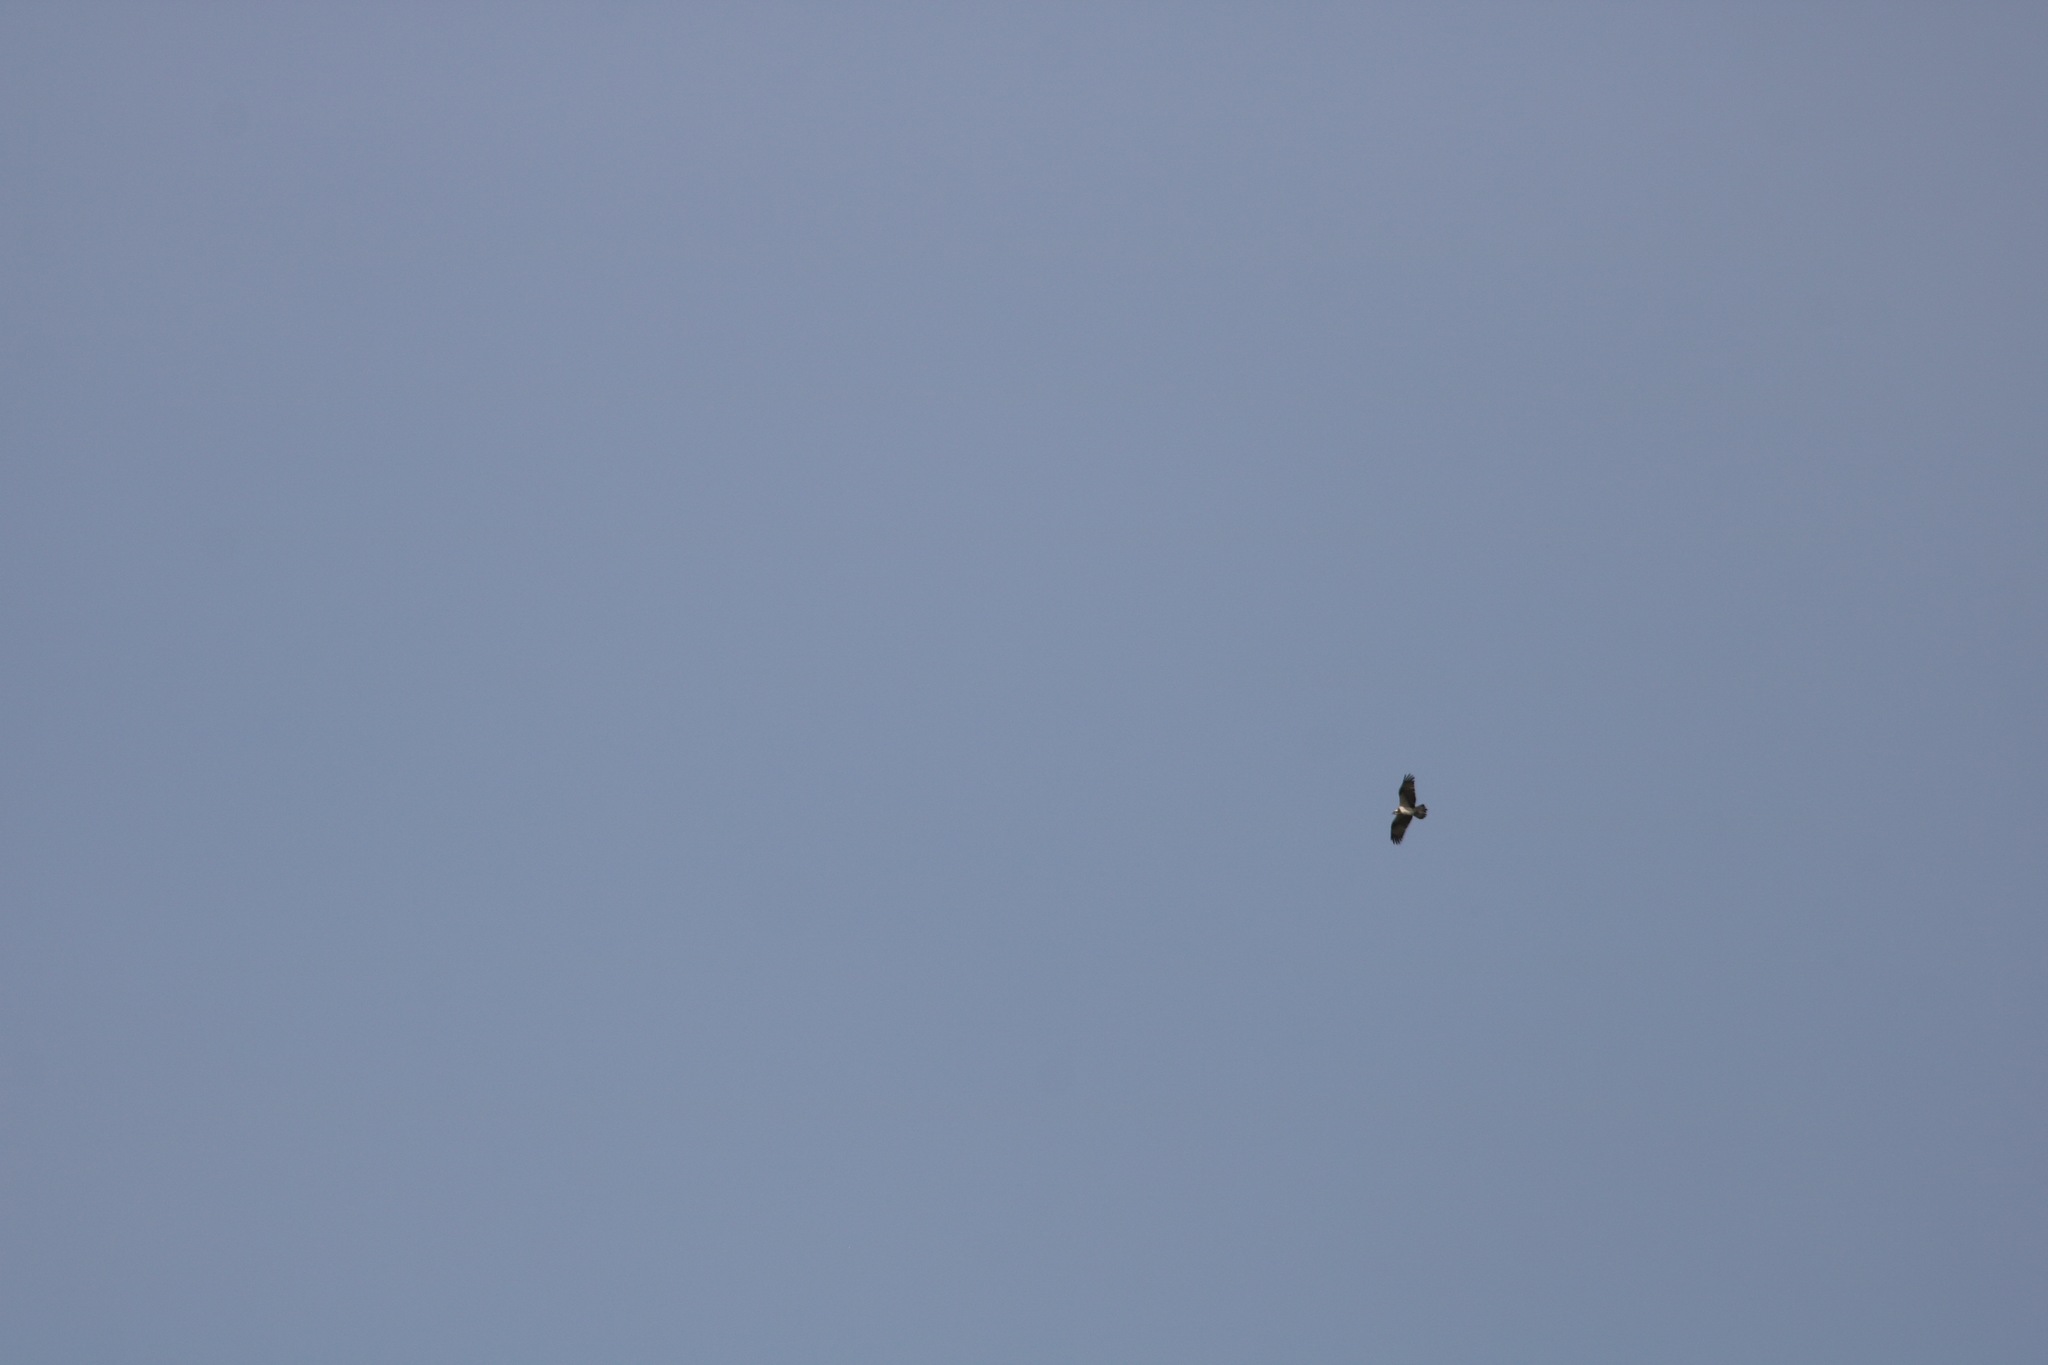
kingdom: Animalia
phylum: Chordata
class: Aves
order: Accipitriformes
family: Pandionidae
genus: Pandion
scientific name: Pandion haliaetus
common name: Osprey
